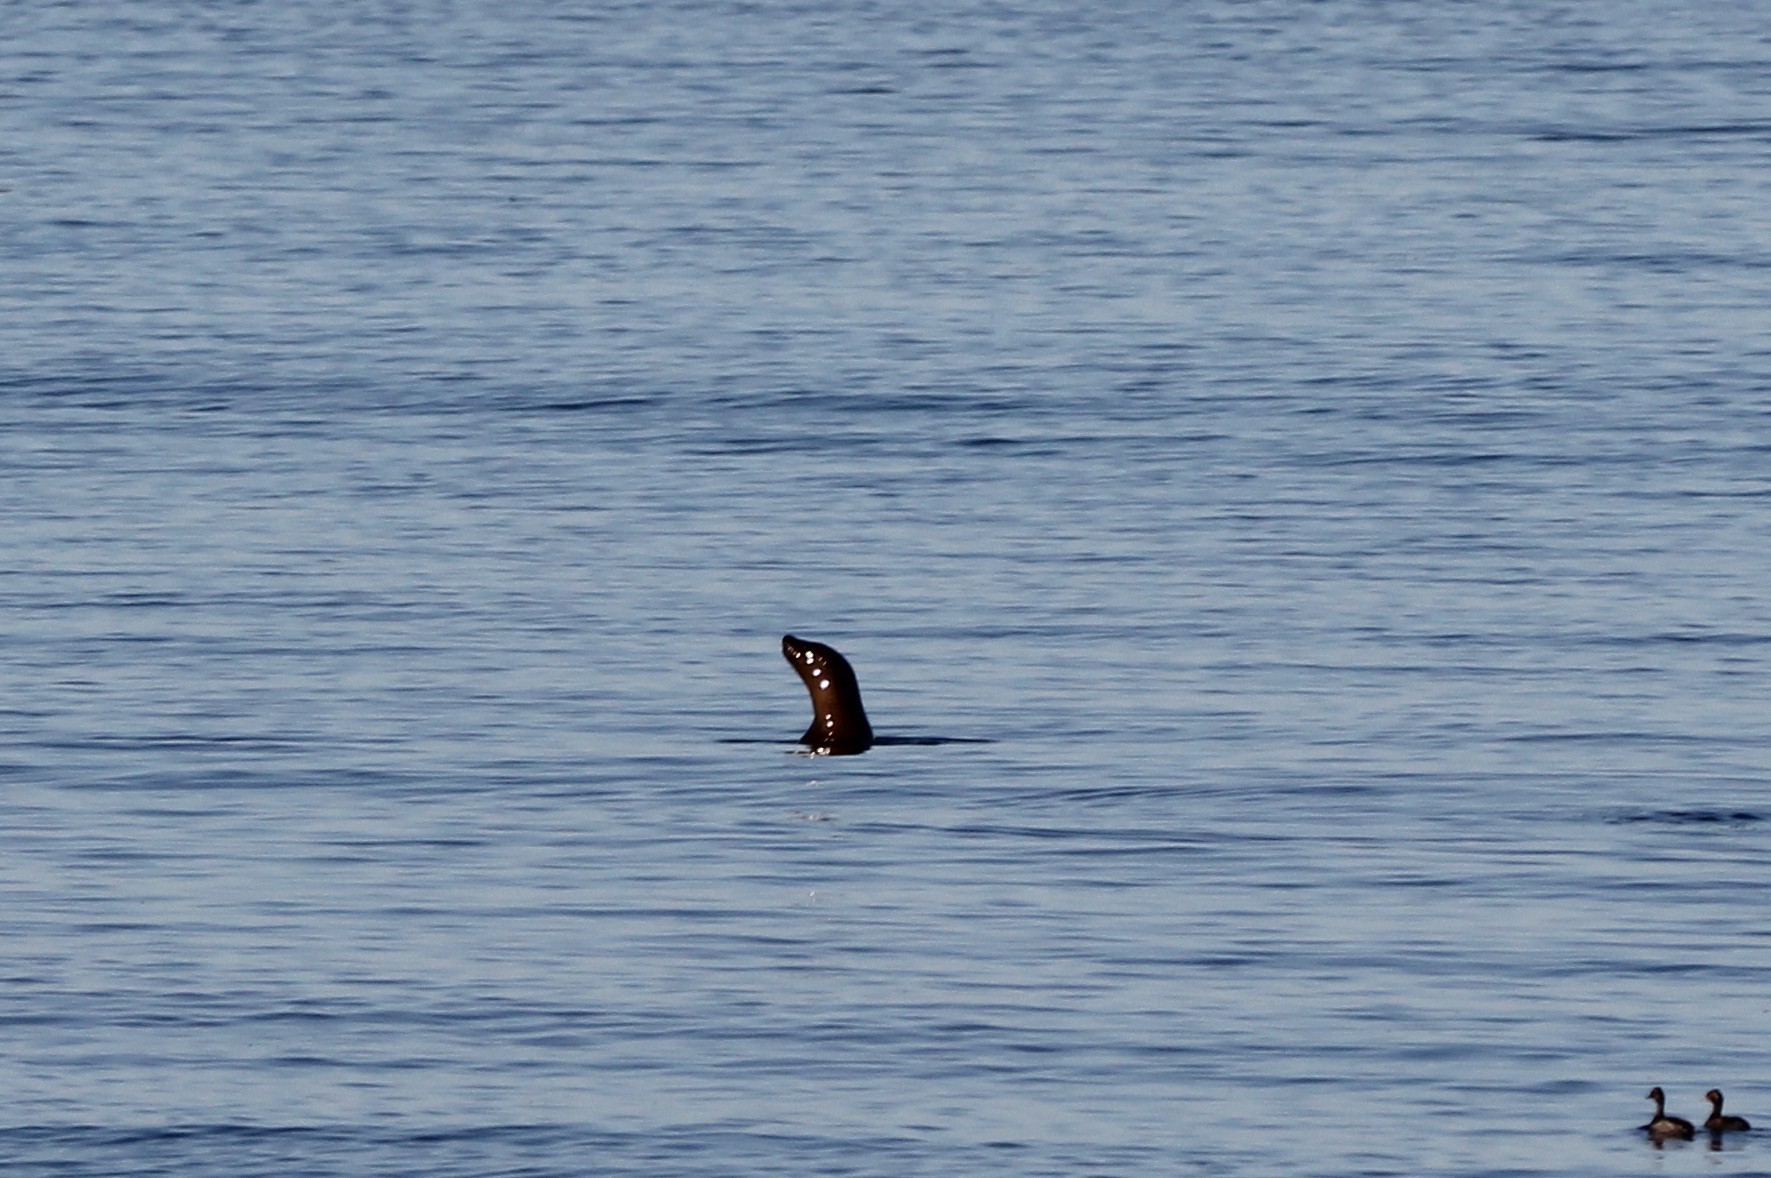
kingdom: Animalia
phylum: Chordata
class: Mammalia
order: Carnivora
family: Otariidae
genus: Zalophus
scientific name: Zalophus californianus
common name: California sea lion
